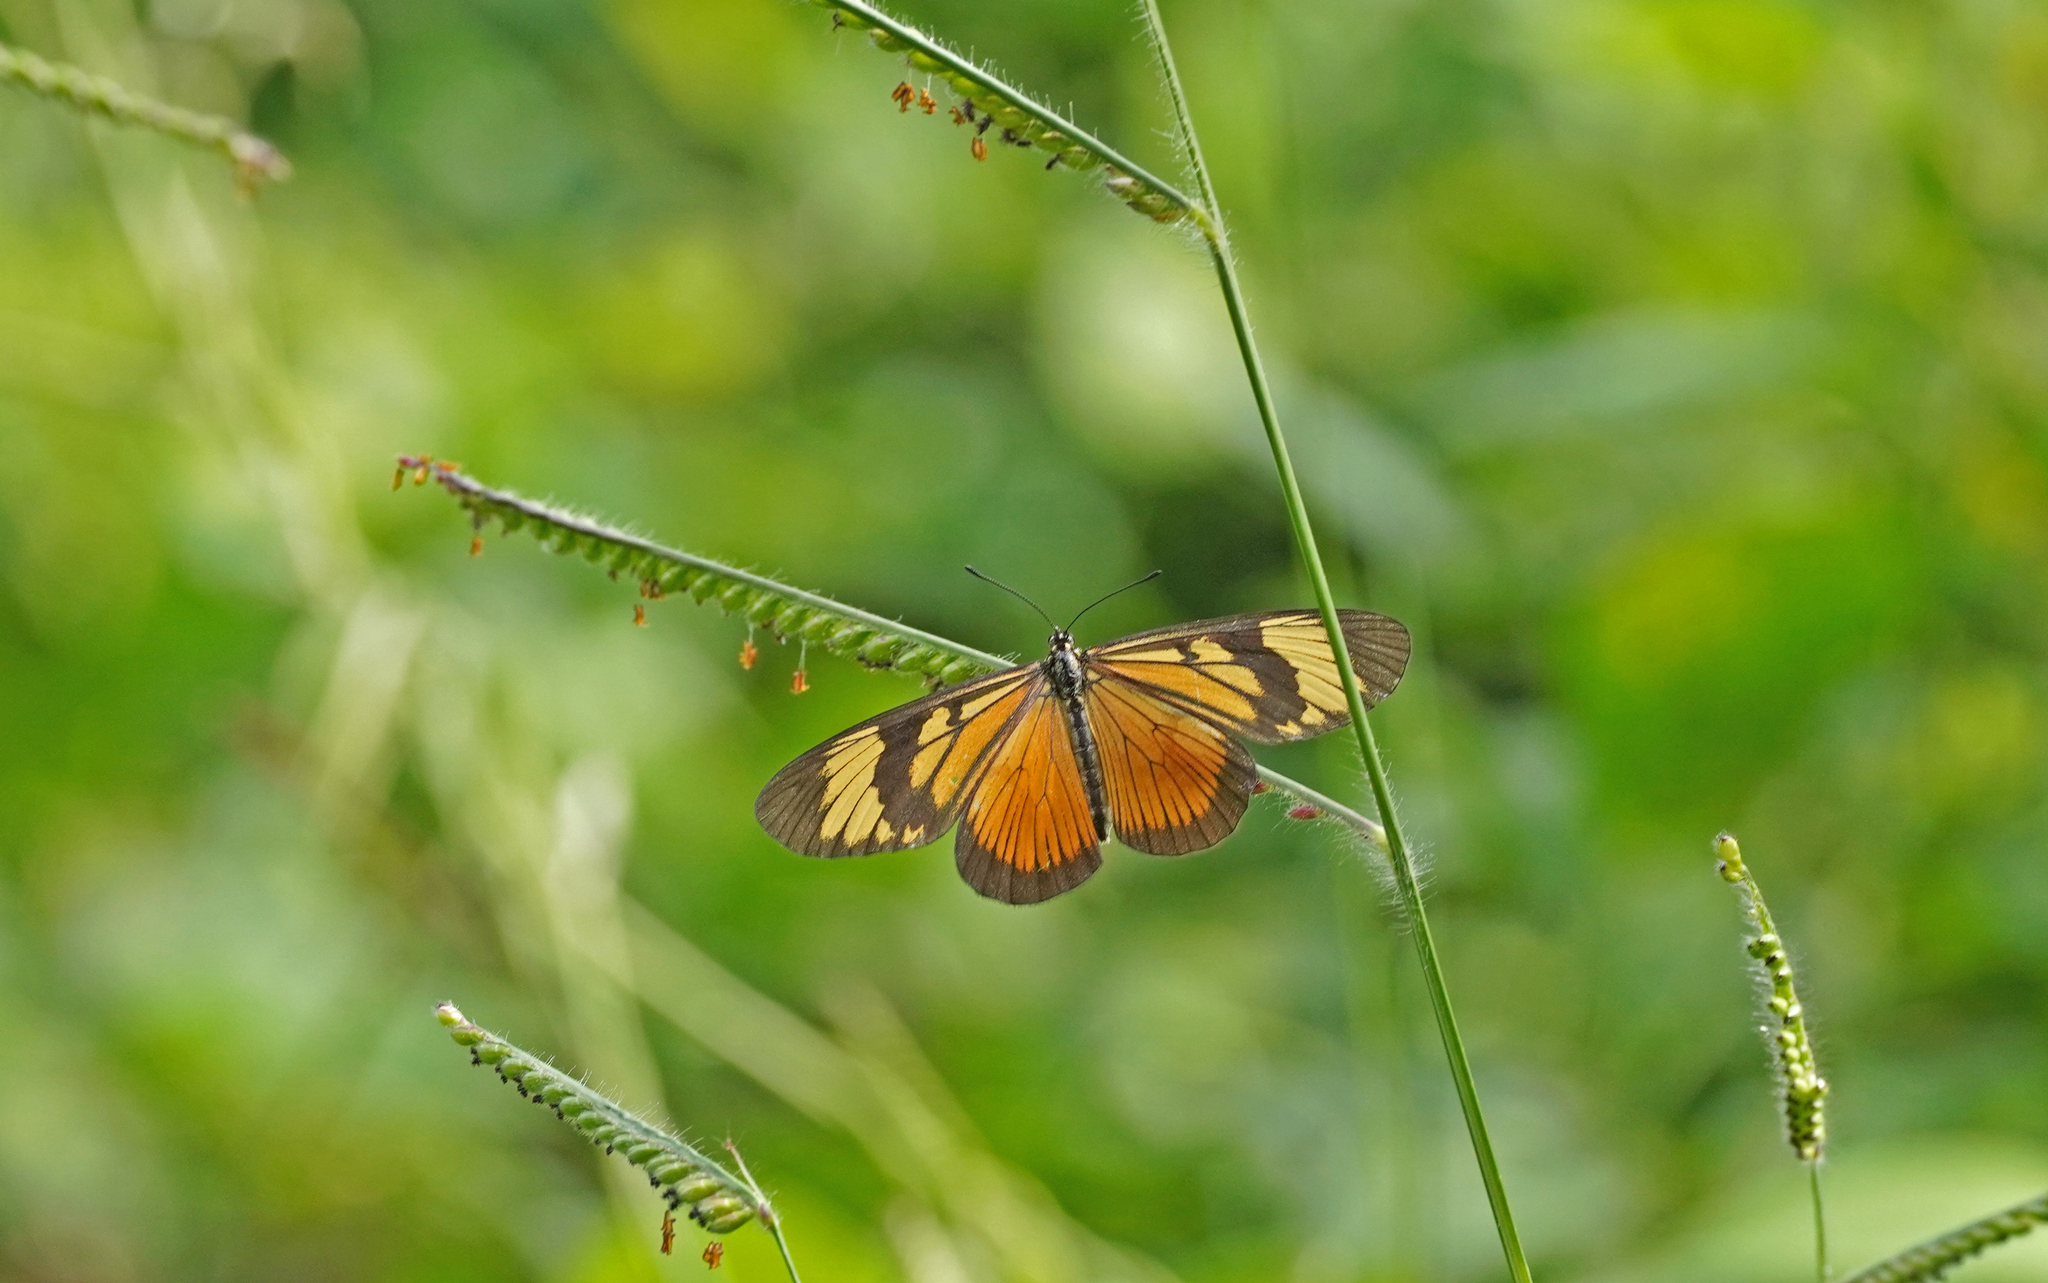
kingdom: Animalia
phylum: Arthropoda
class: Insecta
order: Lepidoptera
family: Nymphalidae
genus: Actinote
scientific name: Actinote pellenea
